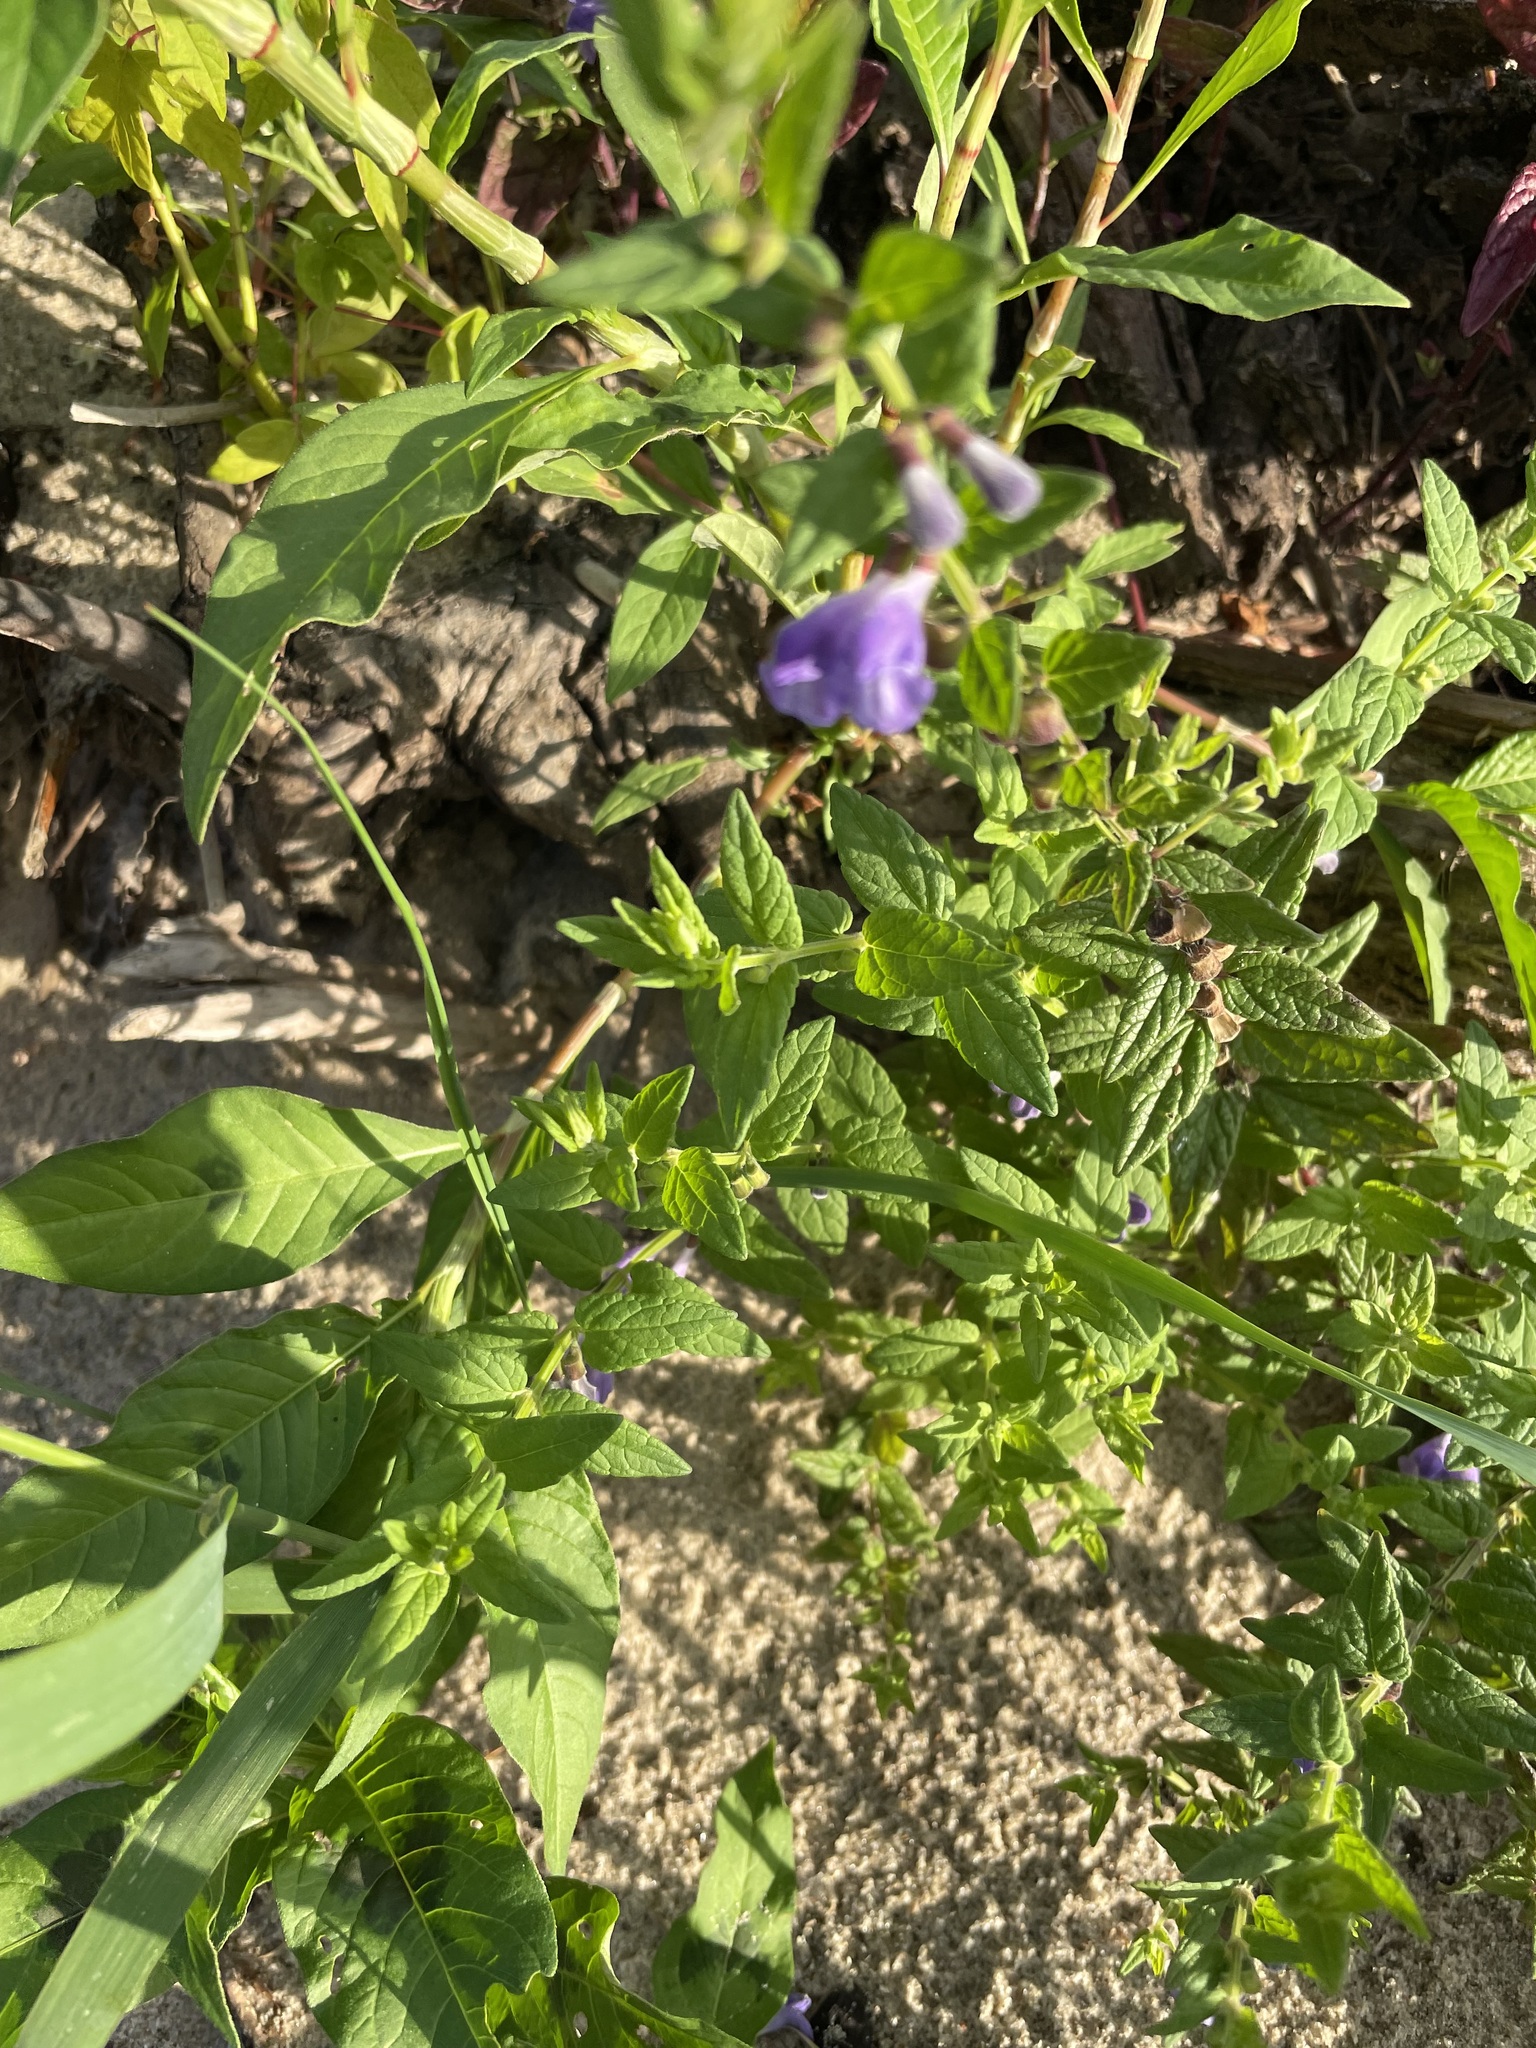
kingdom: Plantae
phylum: Tracheophyta
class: Magnoliopsida
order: Lamiales
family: Lamiaceae
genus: Scutellaria
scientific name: Scutellaria galericulata
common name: Skullcap
